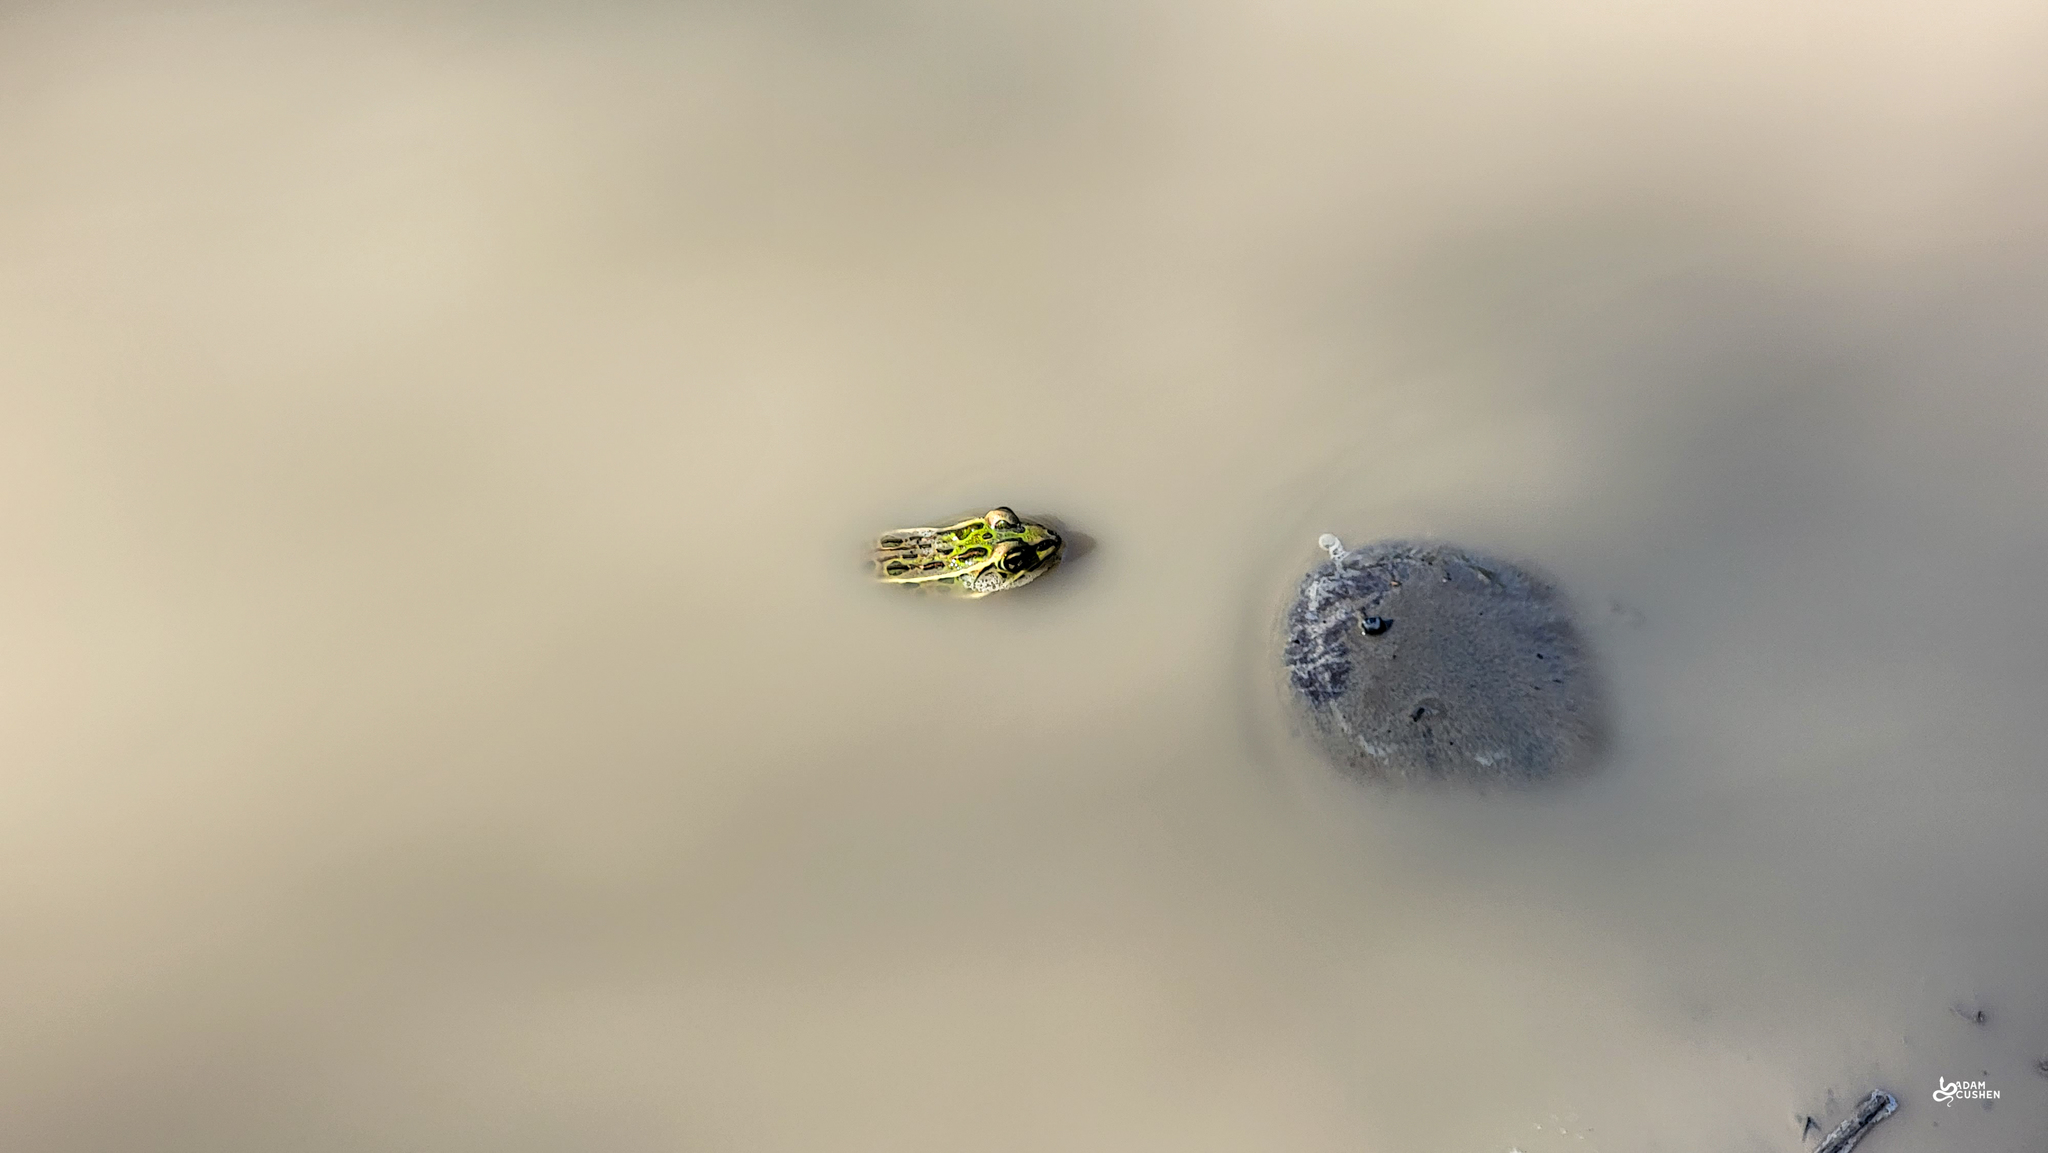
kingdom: Animalia
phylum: Chordata
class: Amphibia
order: Anura
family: Ranidae
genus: Lithobates
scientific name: Lithobates pipiens
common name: Northern leopard frog
